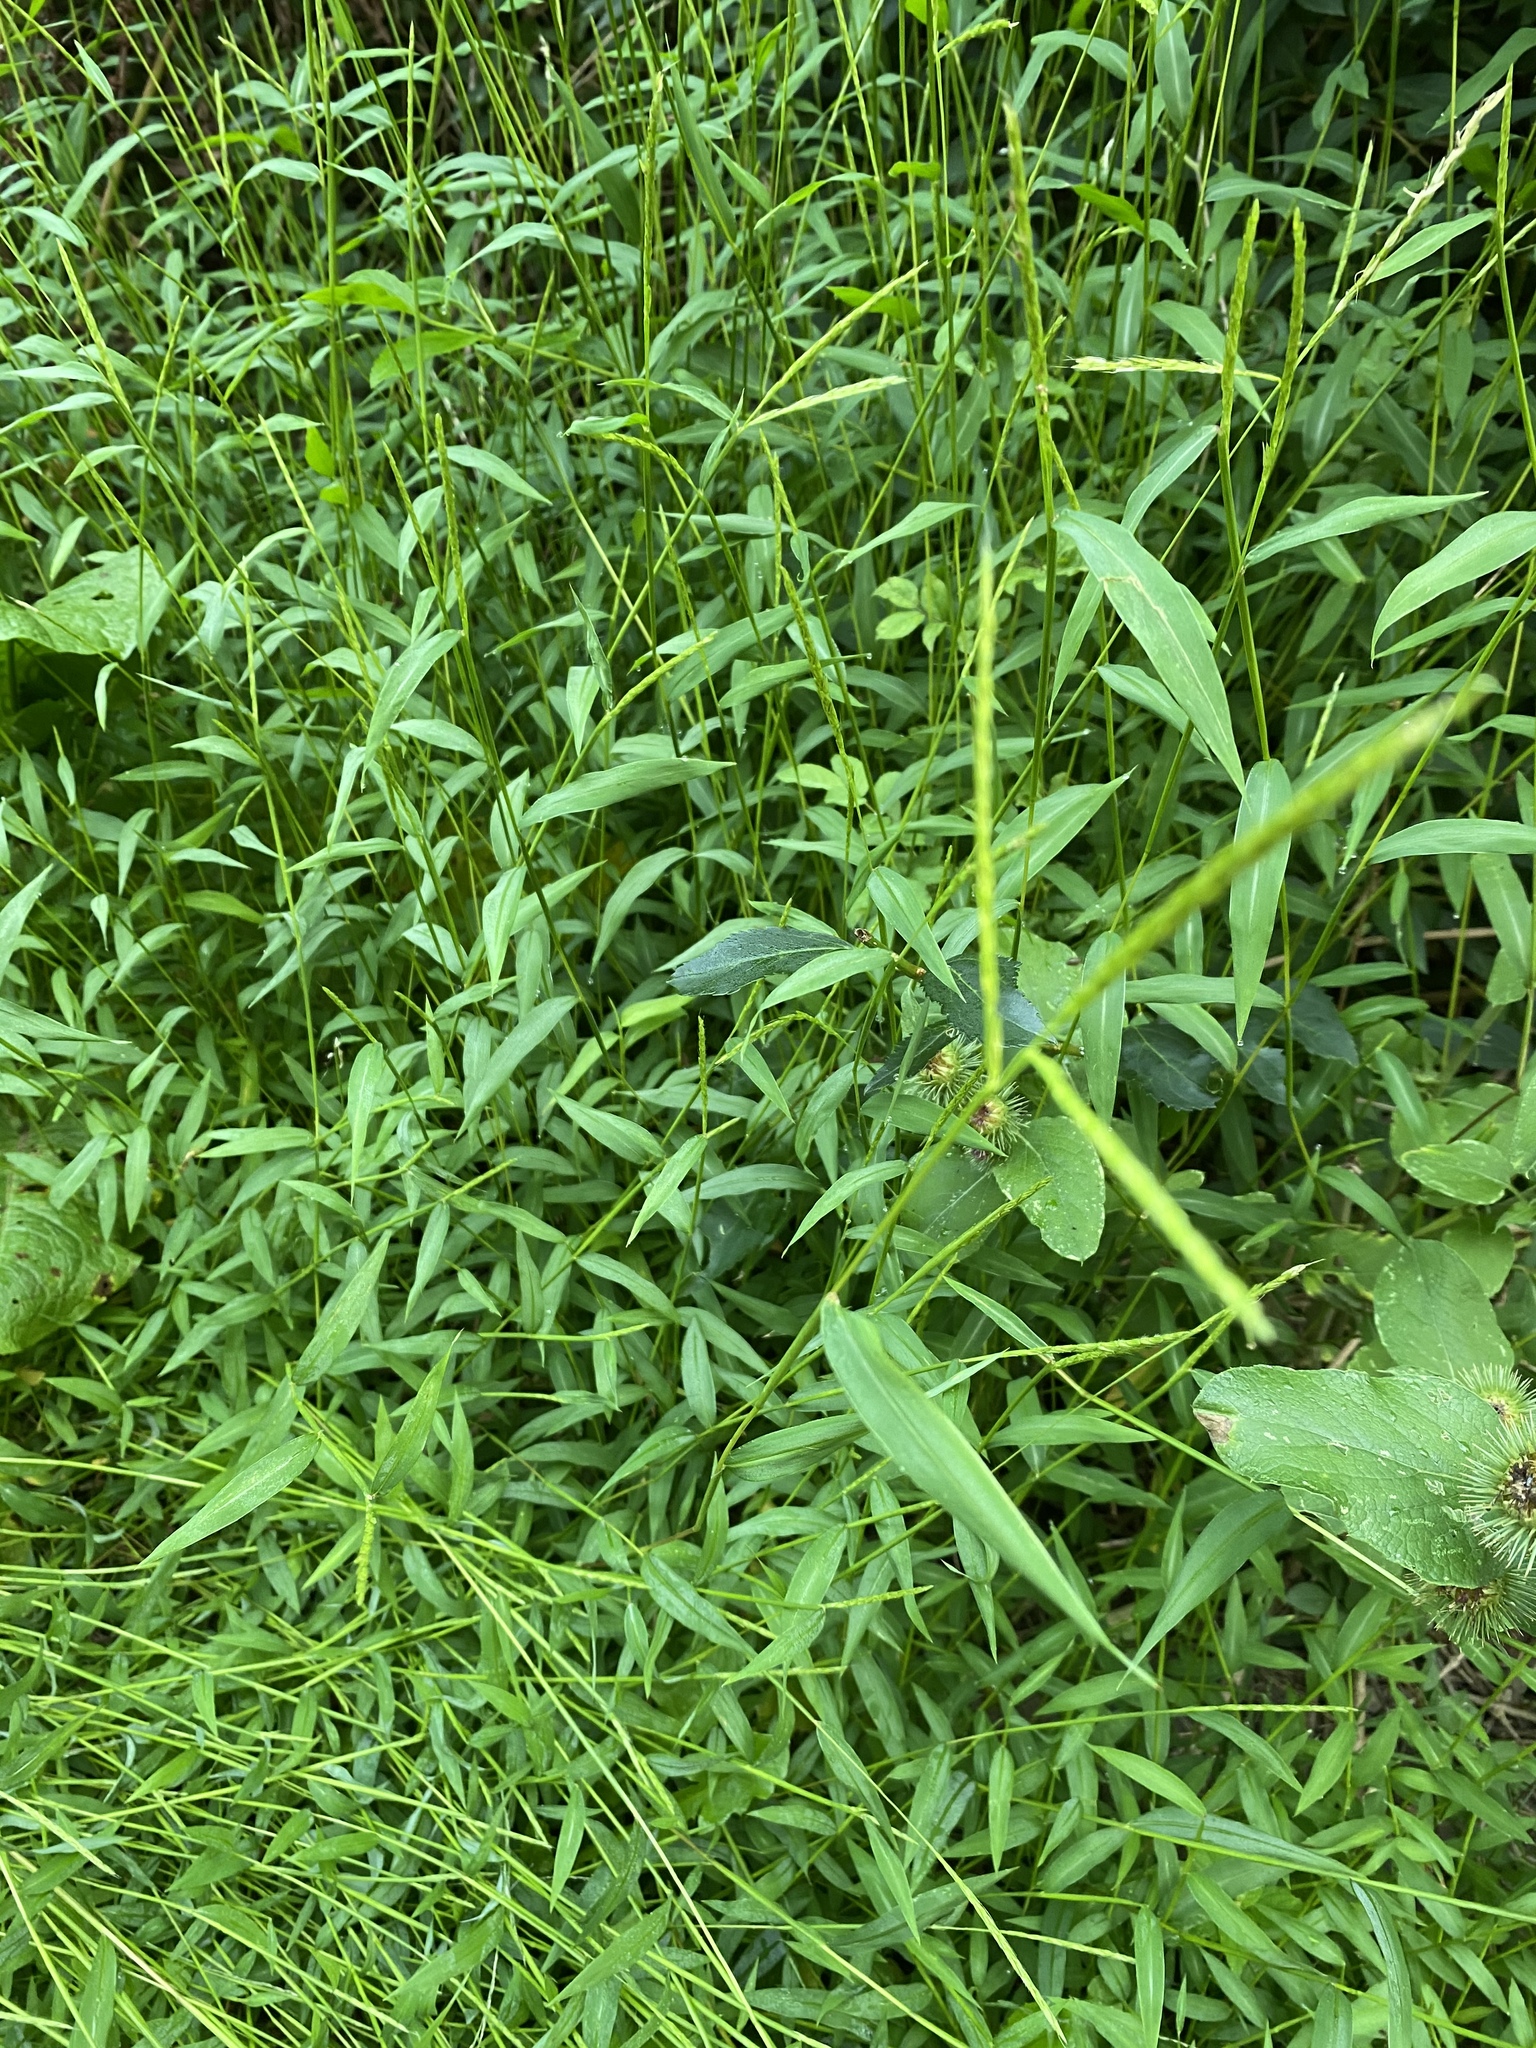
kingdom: Plantae
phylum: Tracheophyta
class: Liliopsida
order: Poales
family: Poaceae
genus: Microstegium
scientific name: Microstegium vimineum
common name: Japanese stiltgrass
